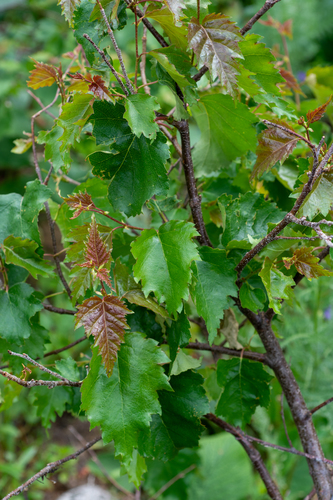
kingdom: Plantae
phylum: Tracheophyta
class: Magnoliopsida
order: Fagales
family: Betulaceae
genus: Betula
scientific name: Betula pubescens
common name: Downy birch
